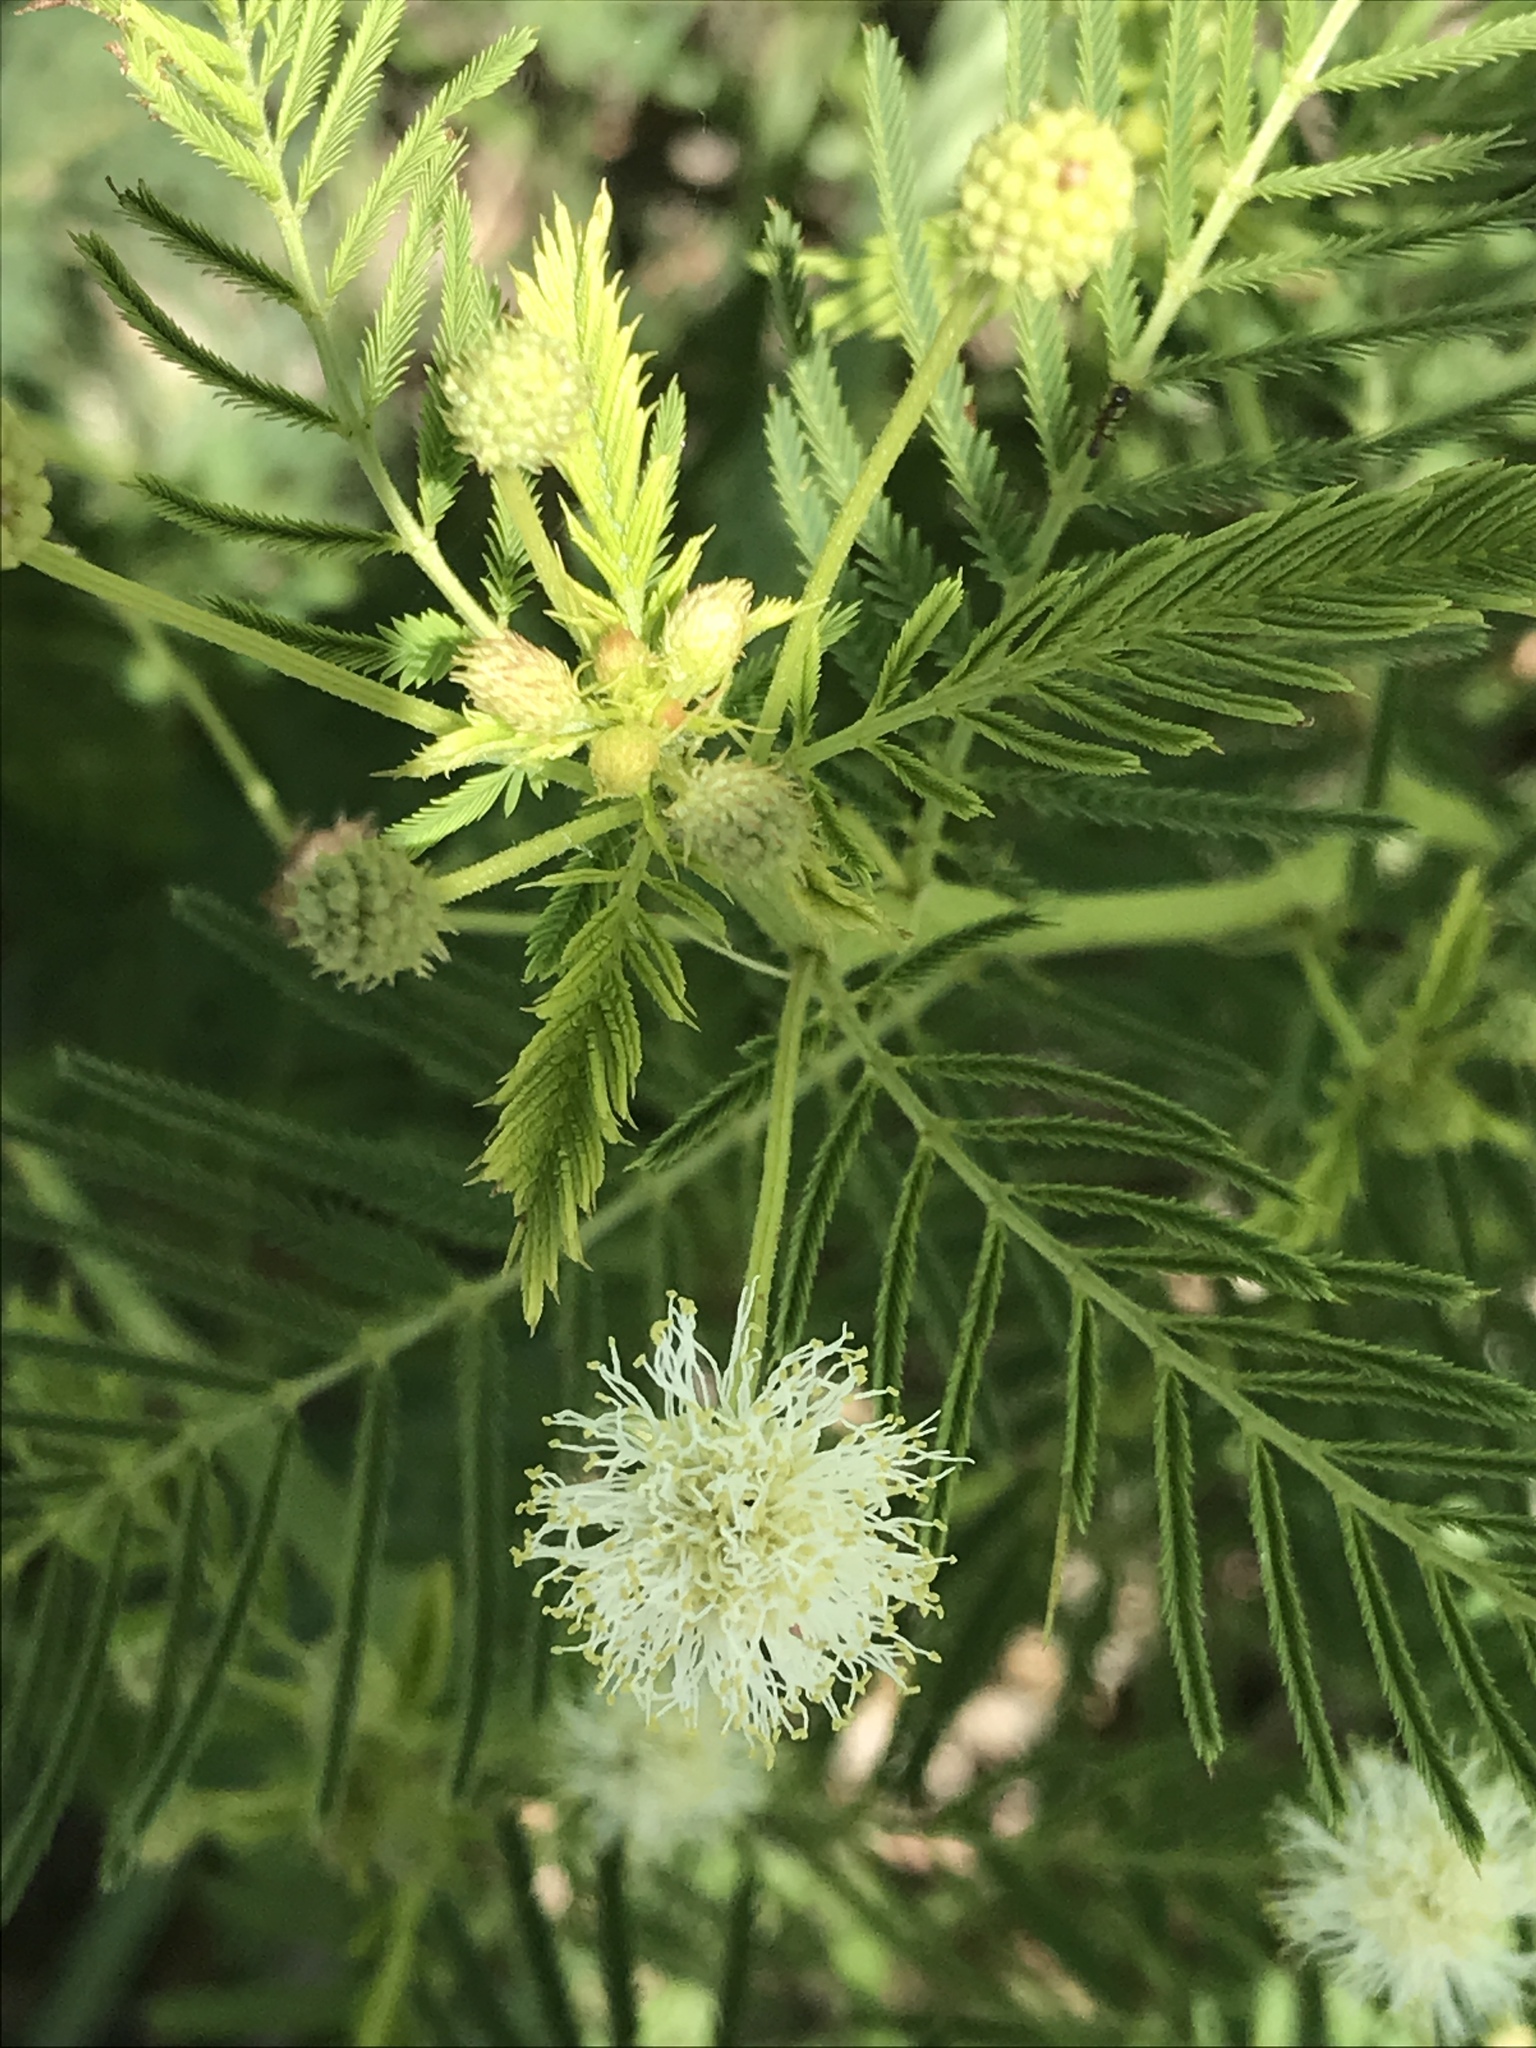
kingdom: Plantae
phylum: Tracheophyta
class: Magnoliopsida
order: Fabales
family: Fabaceae
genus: Desmanthus
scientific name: Desmanthus illinoensis
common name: Illinois bundle-flower
